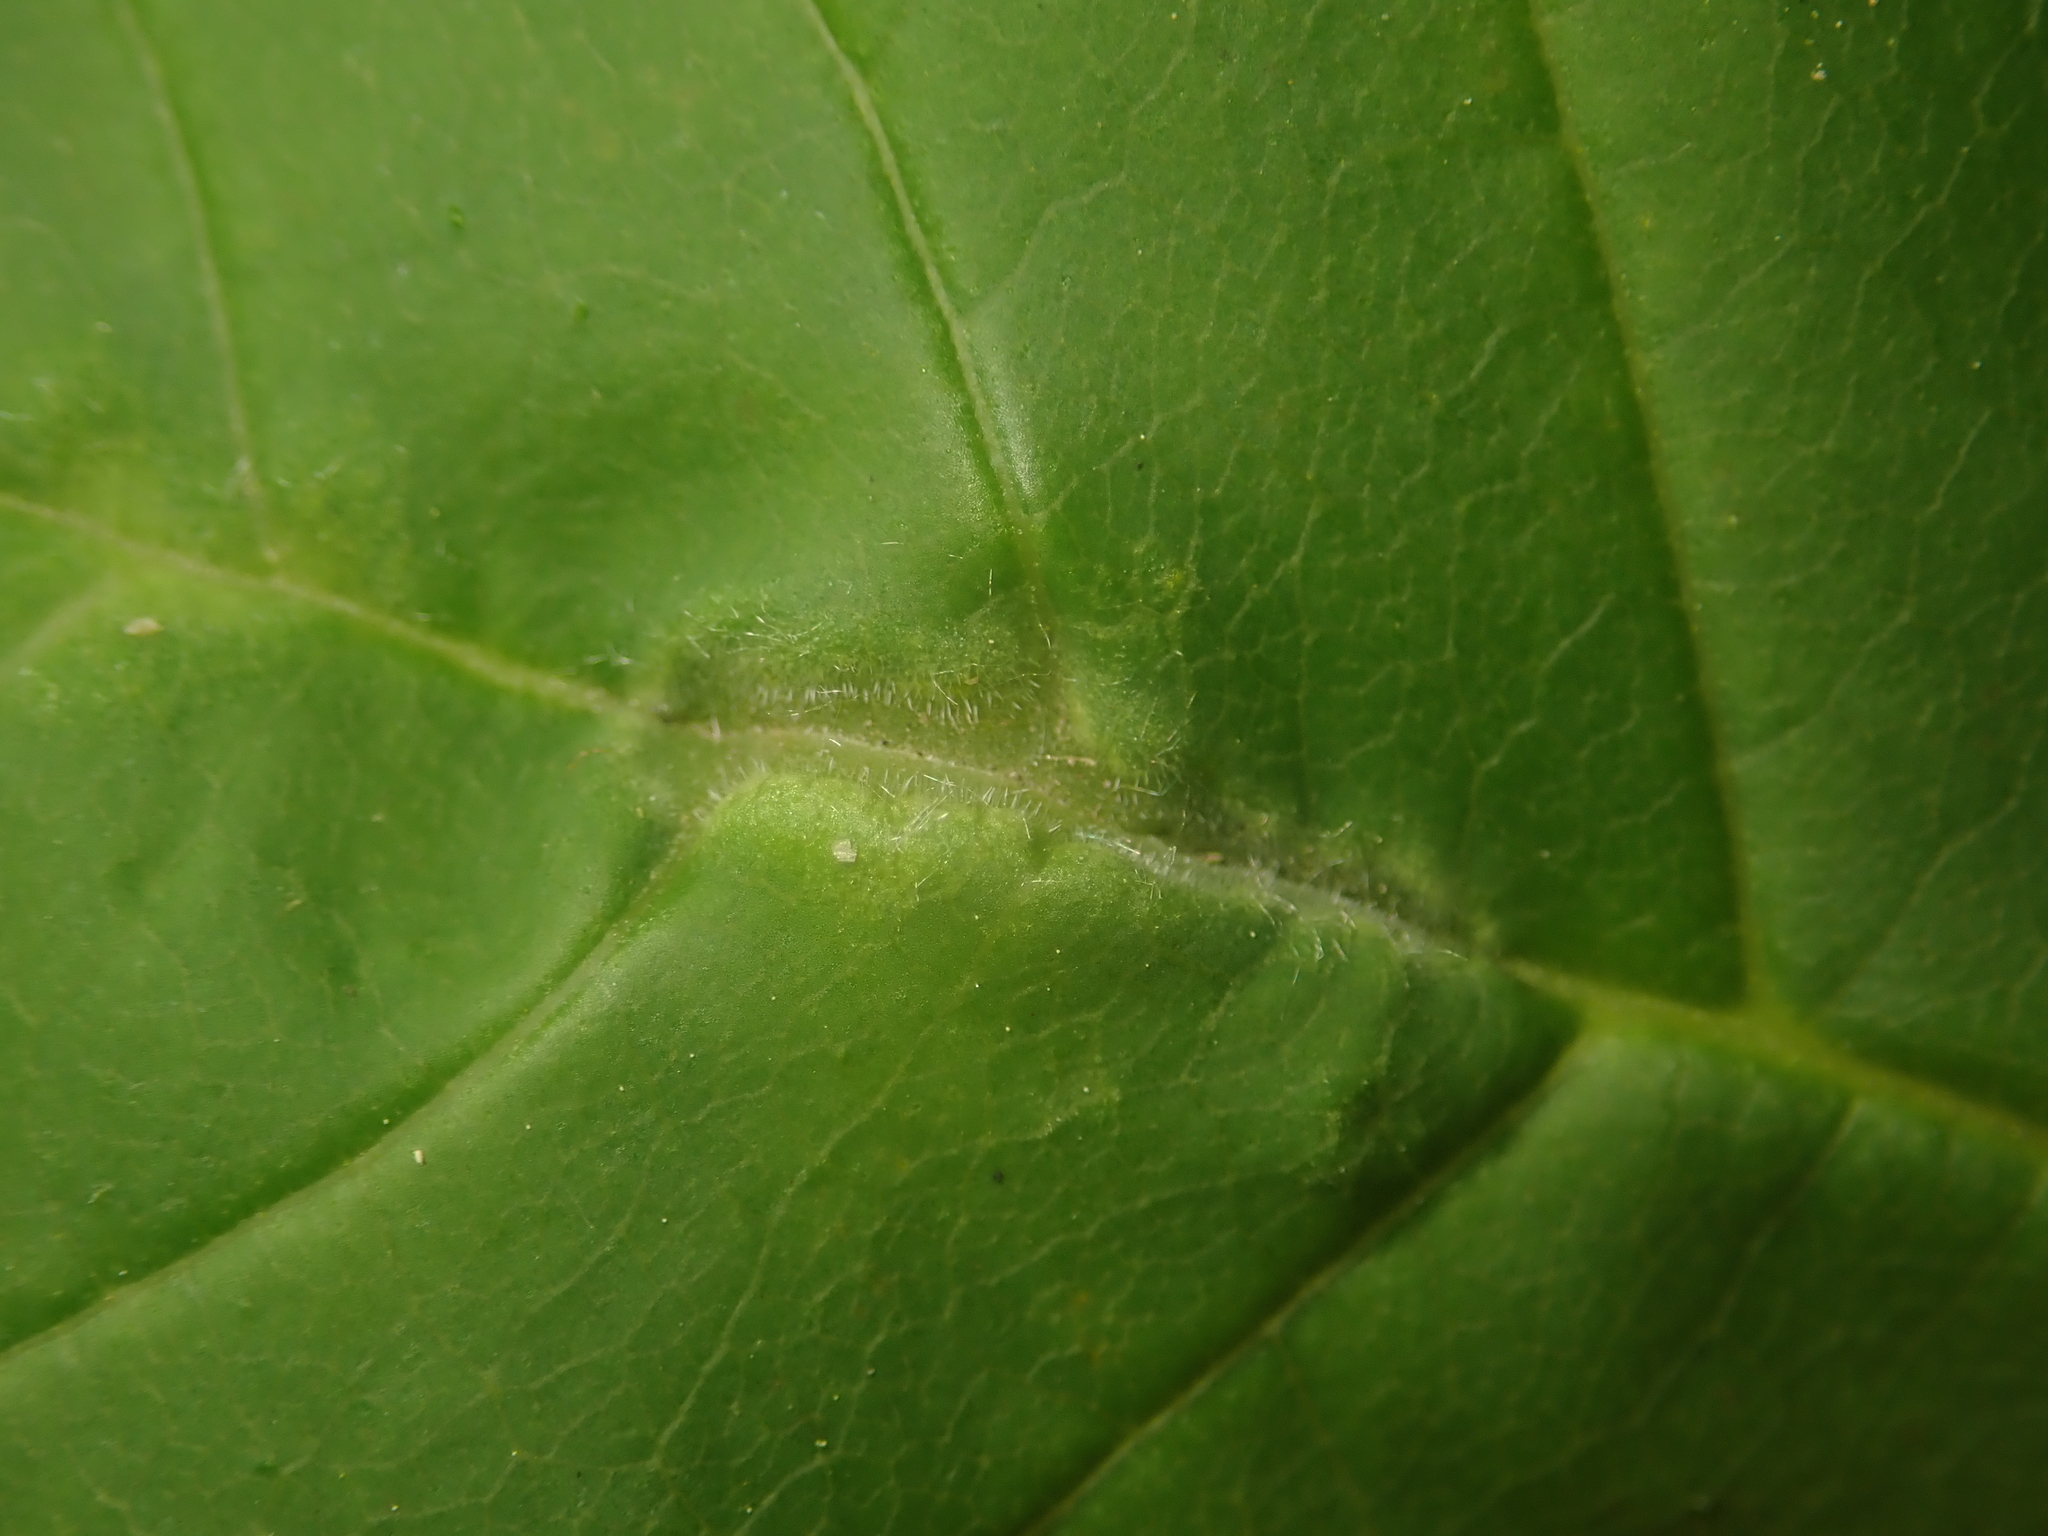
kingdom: Animalia
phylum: Arthropoda
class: Insecta
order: Diptera
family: Cecidomyiidae
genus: Dasineura
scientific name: Dasineura fraxini
